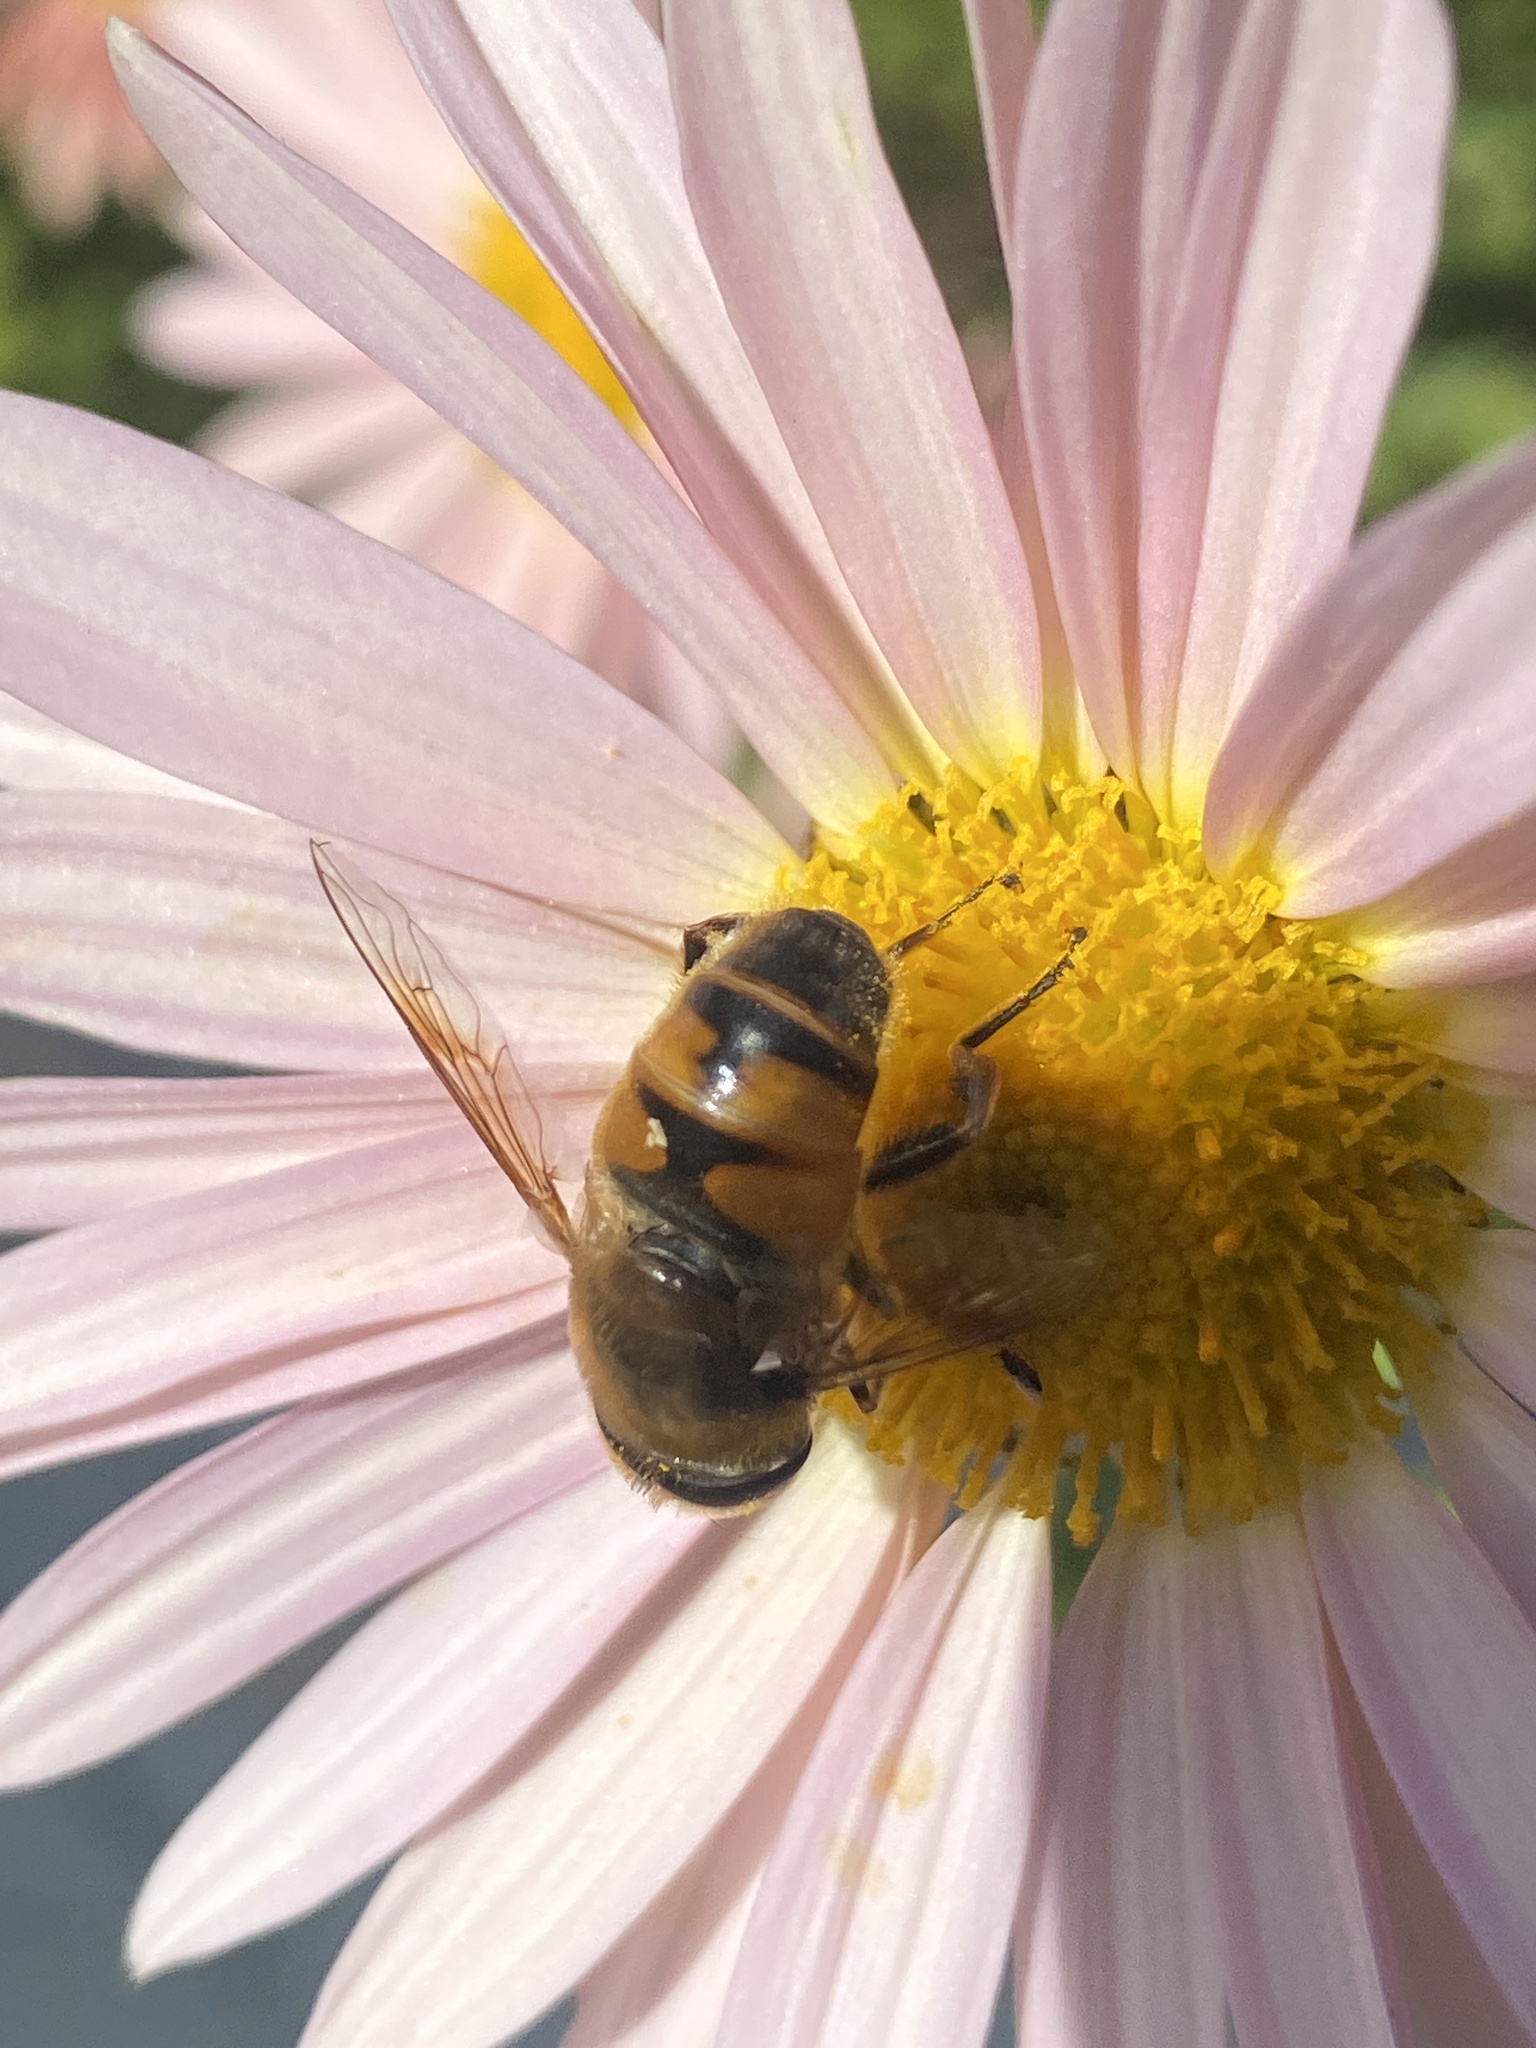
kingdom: Animalia
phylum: Arthropoda
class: Insecta
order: Diptera
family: Syrphidae
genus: Eristalis
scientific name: Eristalis tenax
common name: Drone fly
